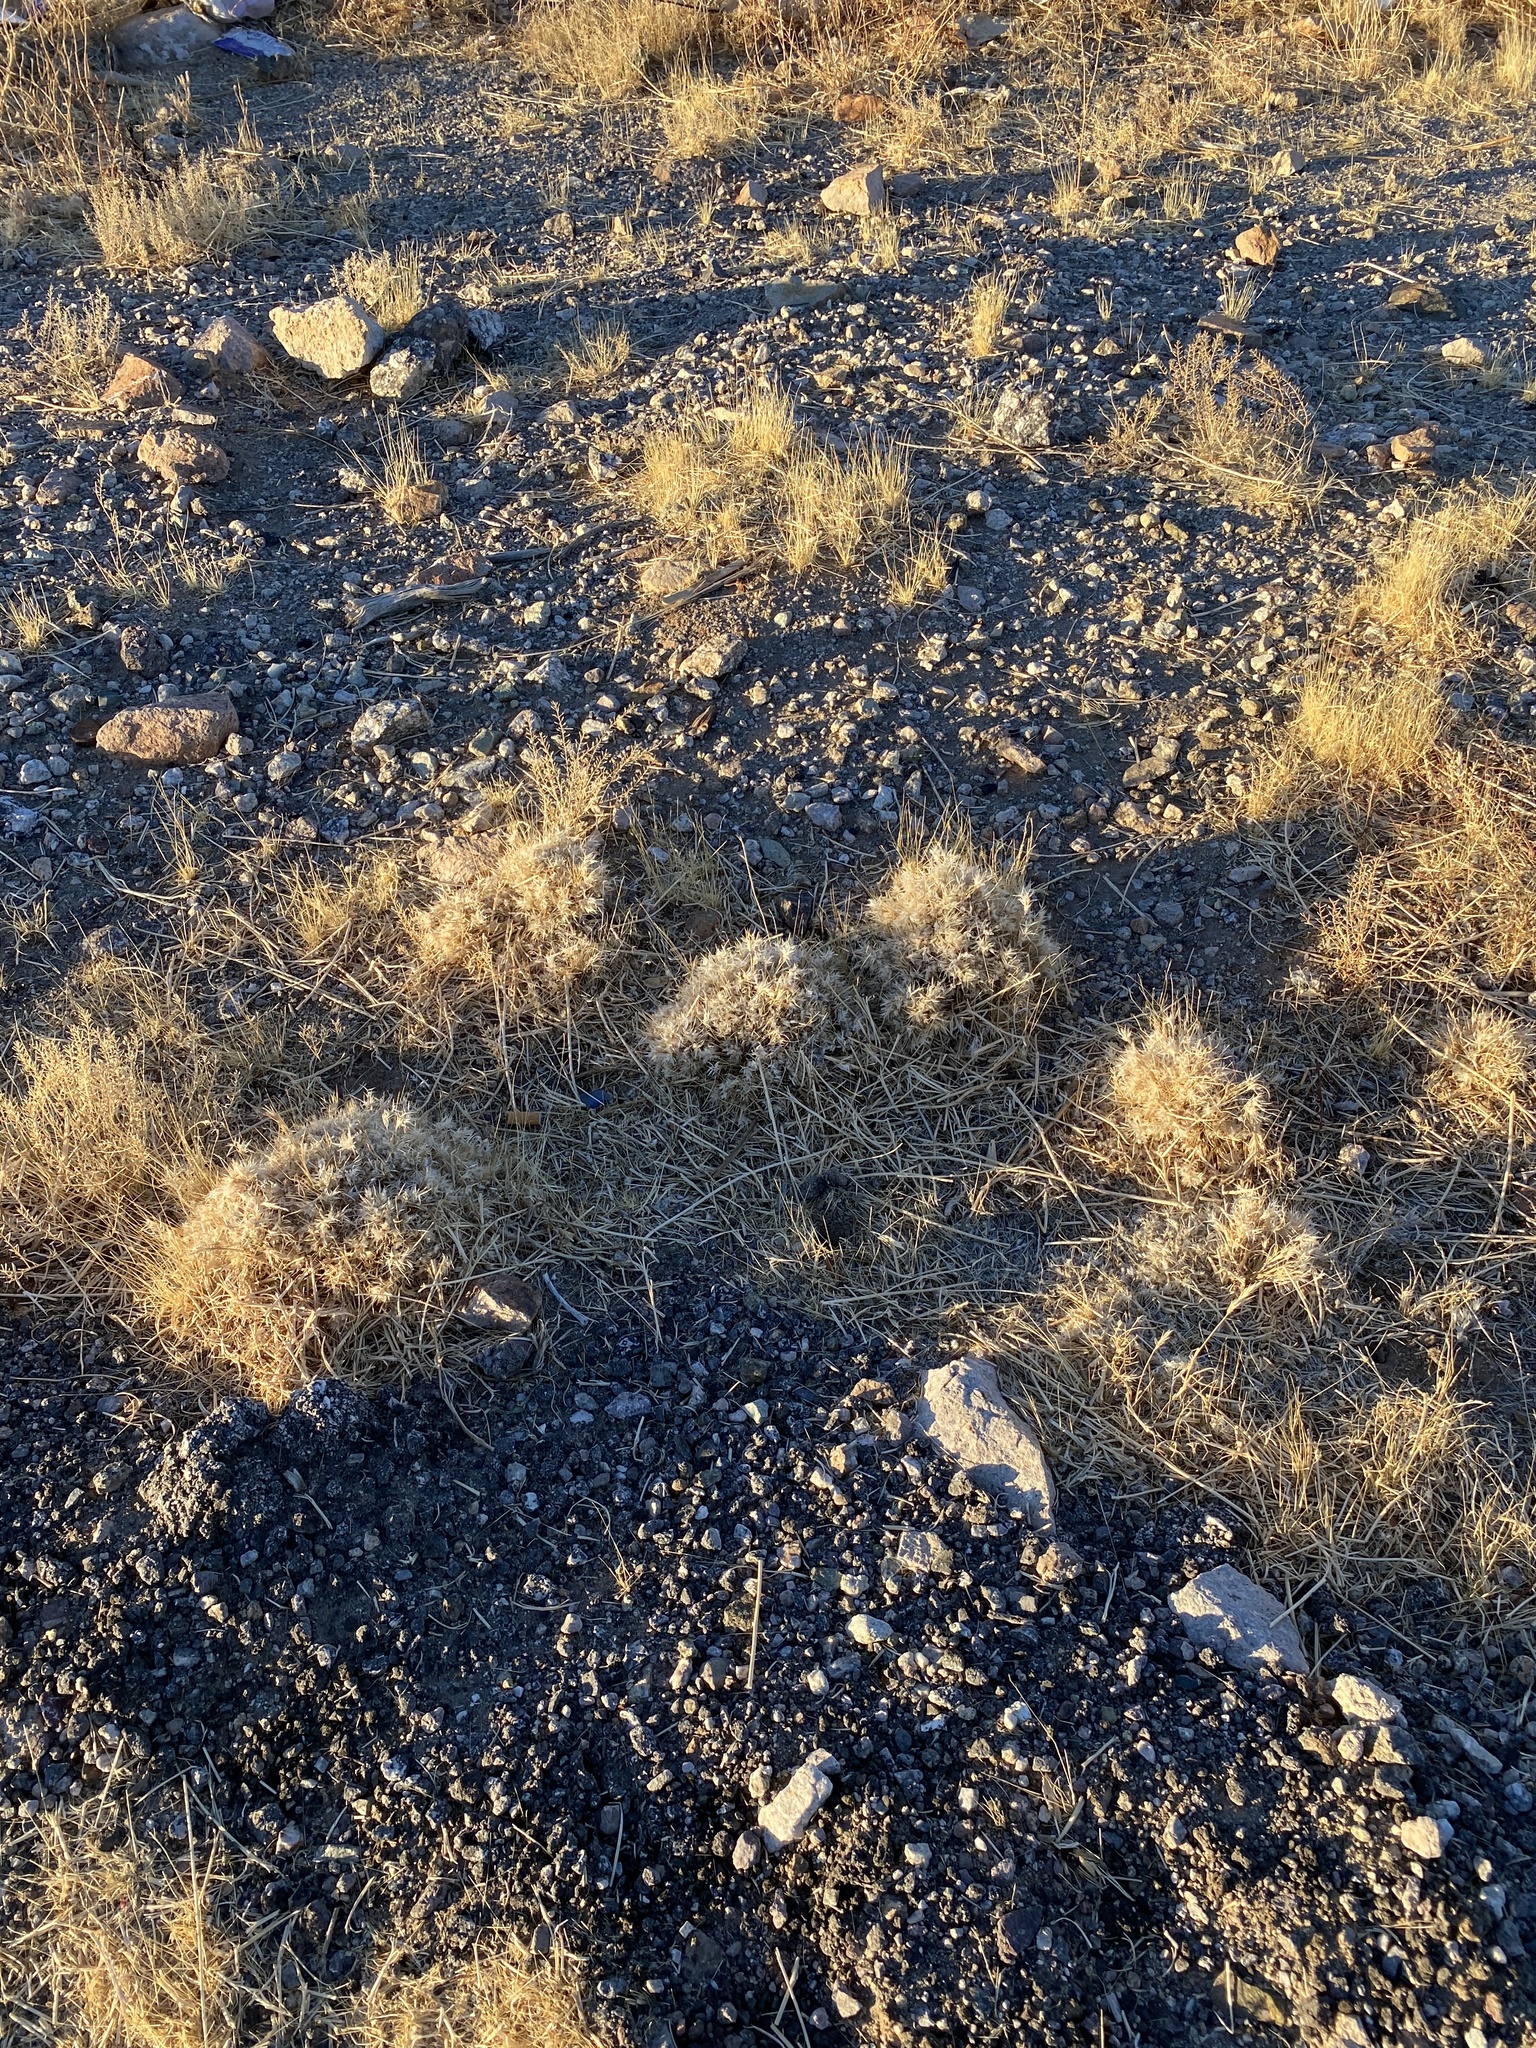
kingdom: Plantae
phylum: Tracheophyta
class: Liliopsida
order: Poales
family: Poaceae
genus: Dasyochloa
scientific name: Dasyochloa pulchella
